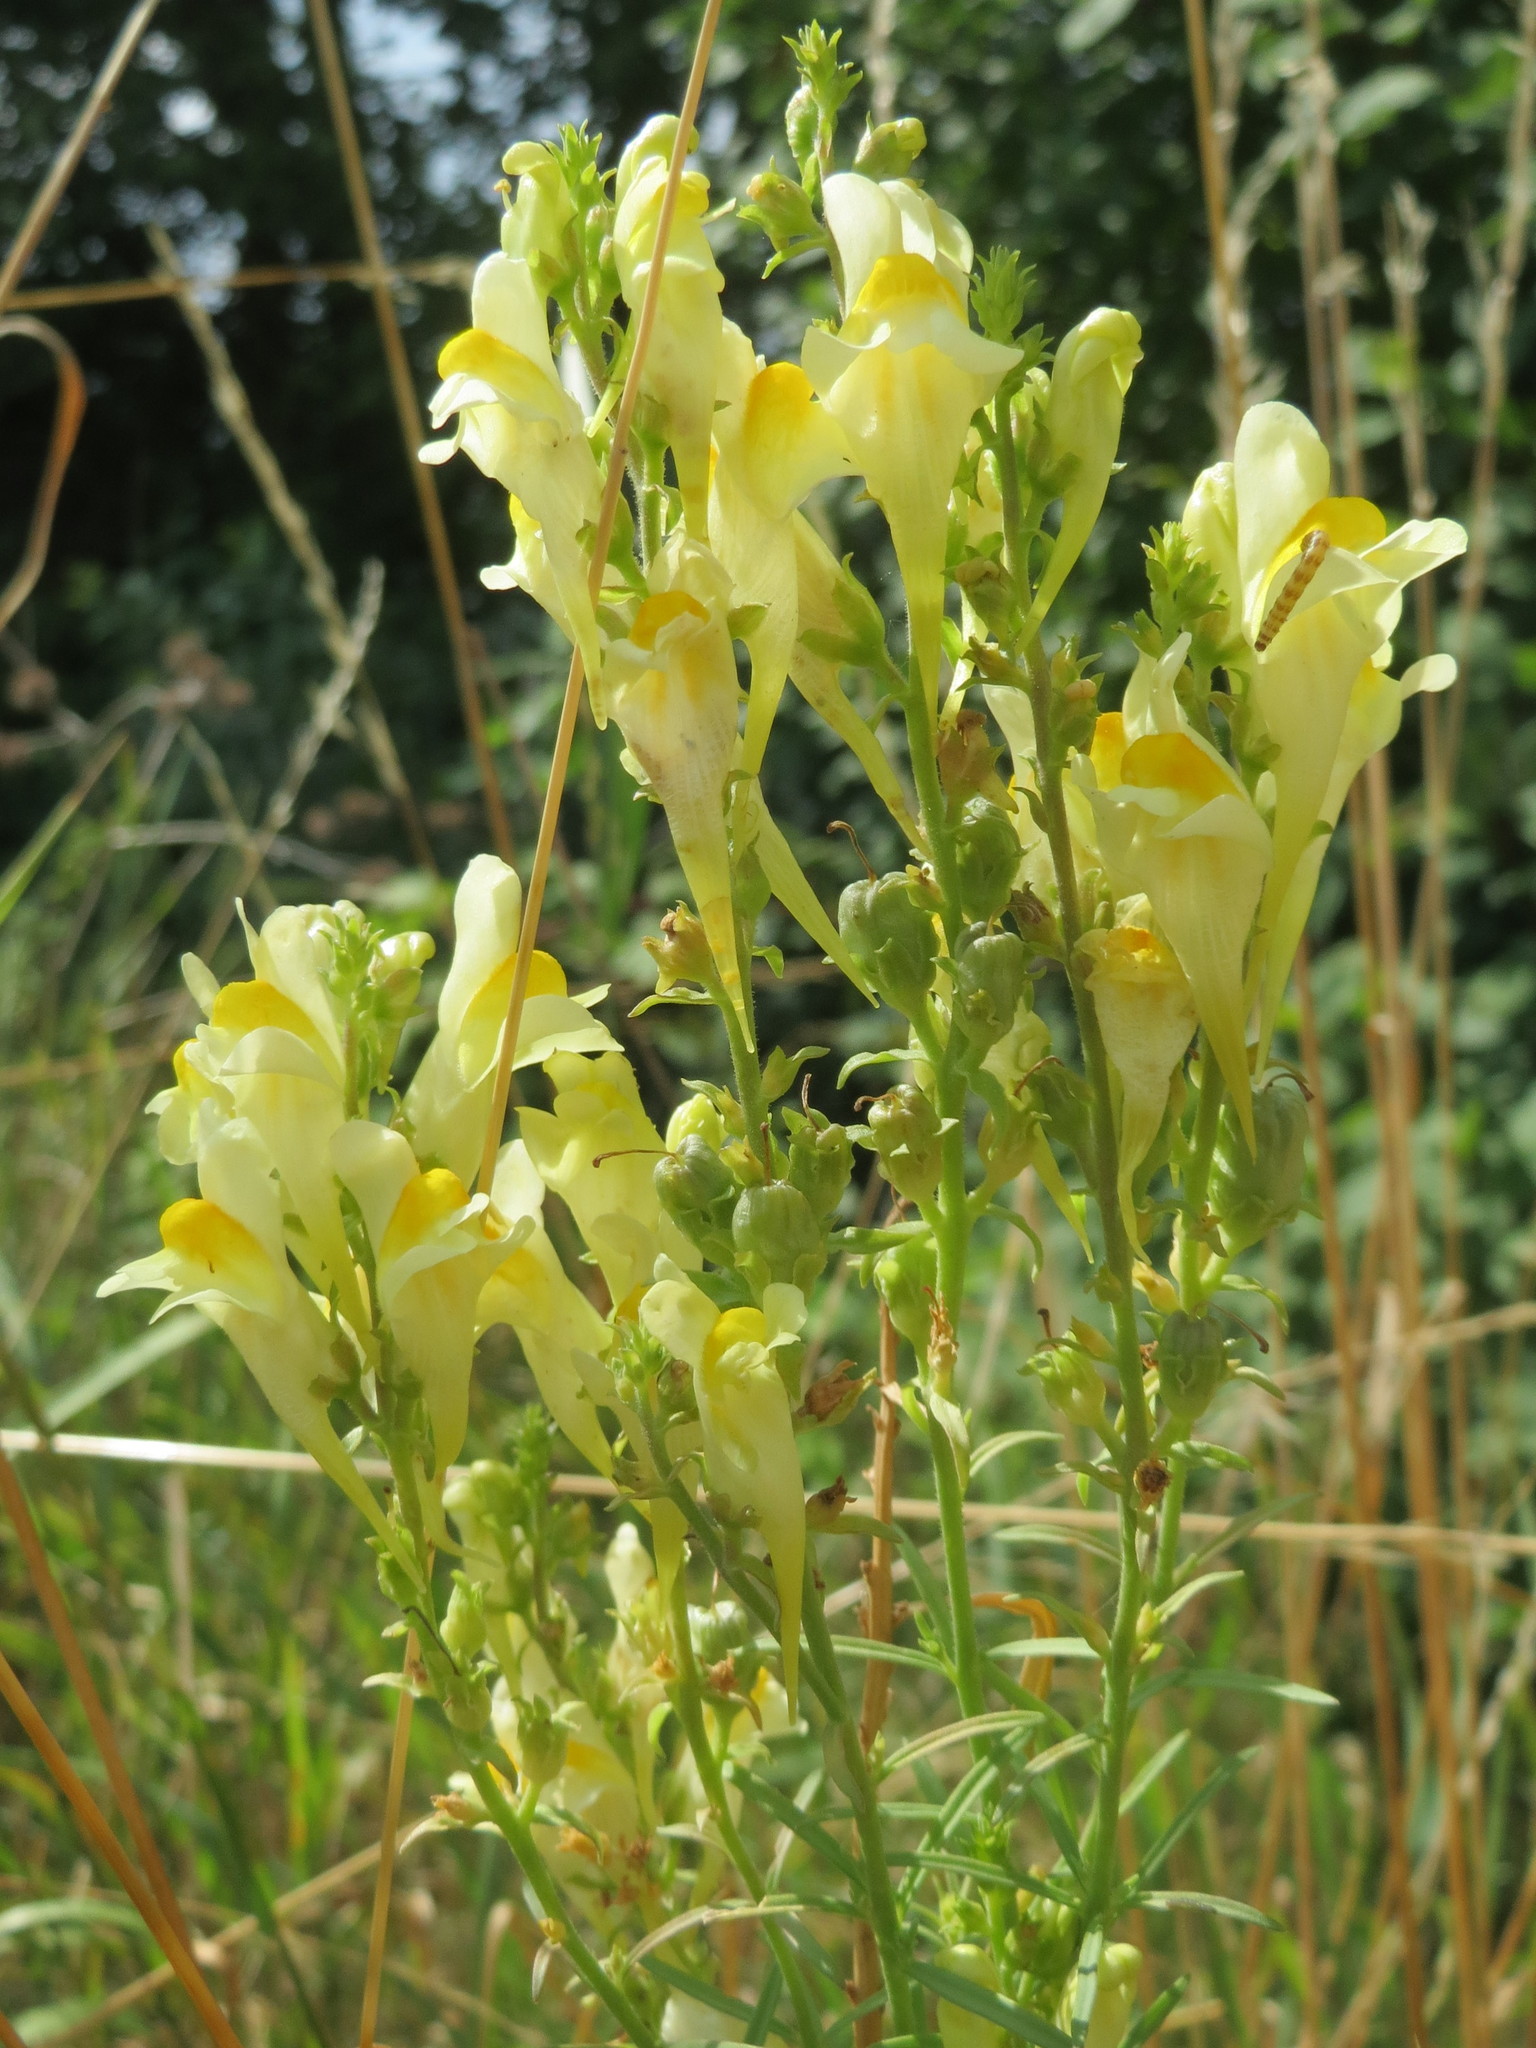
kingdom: Plantae
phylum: Tracheophyta
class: Magnoliopsida
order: Lamiales
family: Plantaginaceae
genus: Linaria
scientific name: Linaria vulgaris
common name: Butter and eggs
